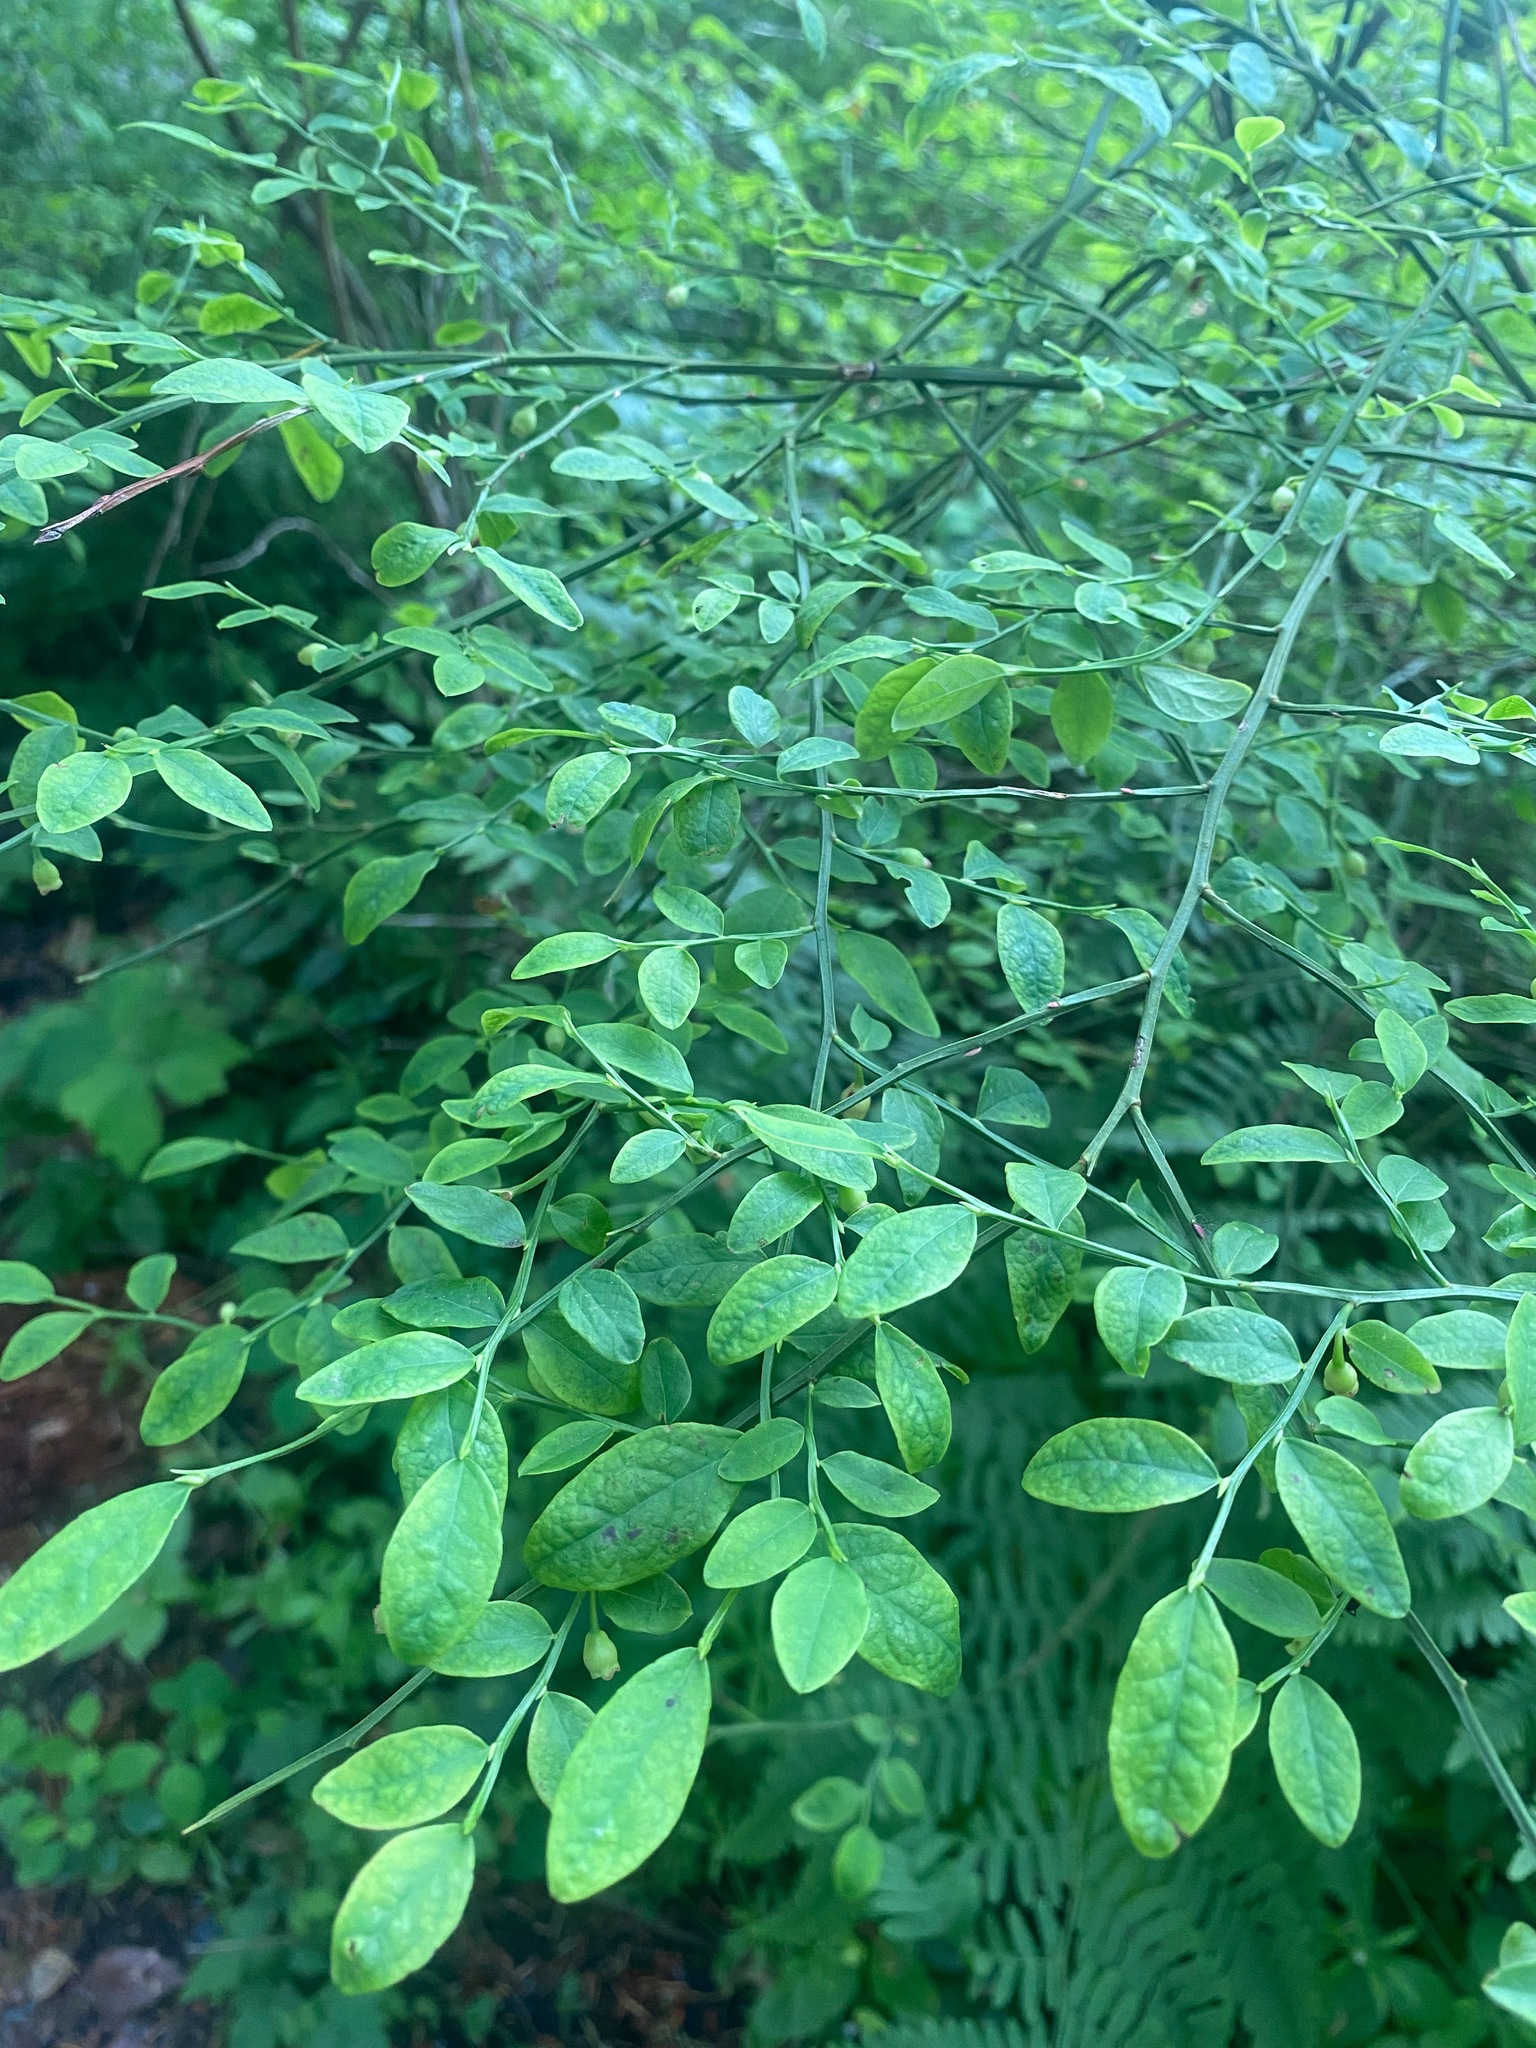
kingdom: Plantae
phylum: Tracheophyta
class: Magnoliopsida
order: Ericales
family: Ericaceae
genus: Vaccinium
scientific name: Vaccinium parvifolium
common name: Red-huckleberry
